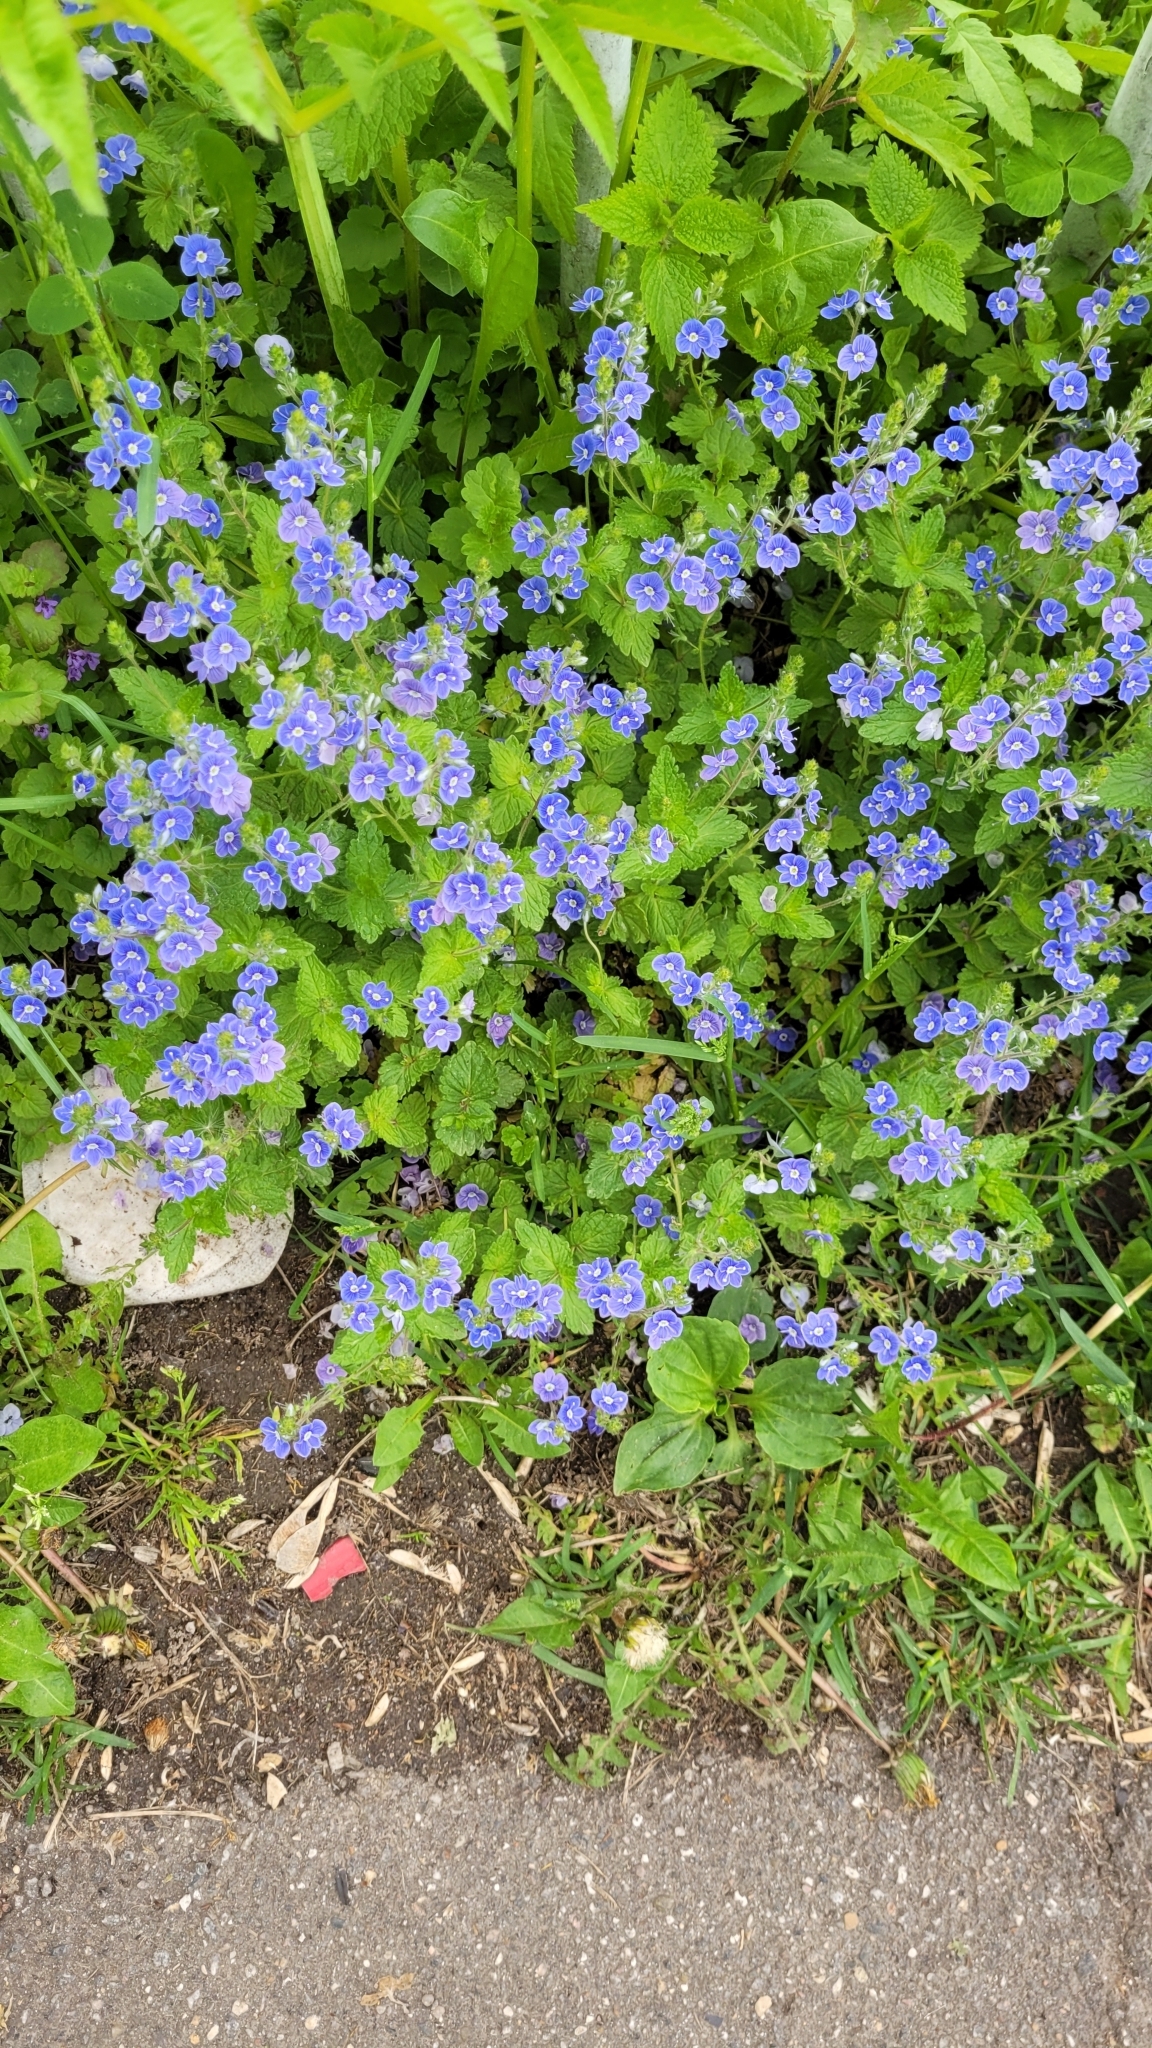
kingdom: Plantae
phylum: Tracheophyta
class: Magnoliopsida
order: Lamiales
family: Plantaginaceae
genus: Veronica
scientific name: Veronica chamaedrys
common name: Germander speedwell
